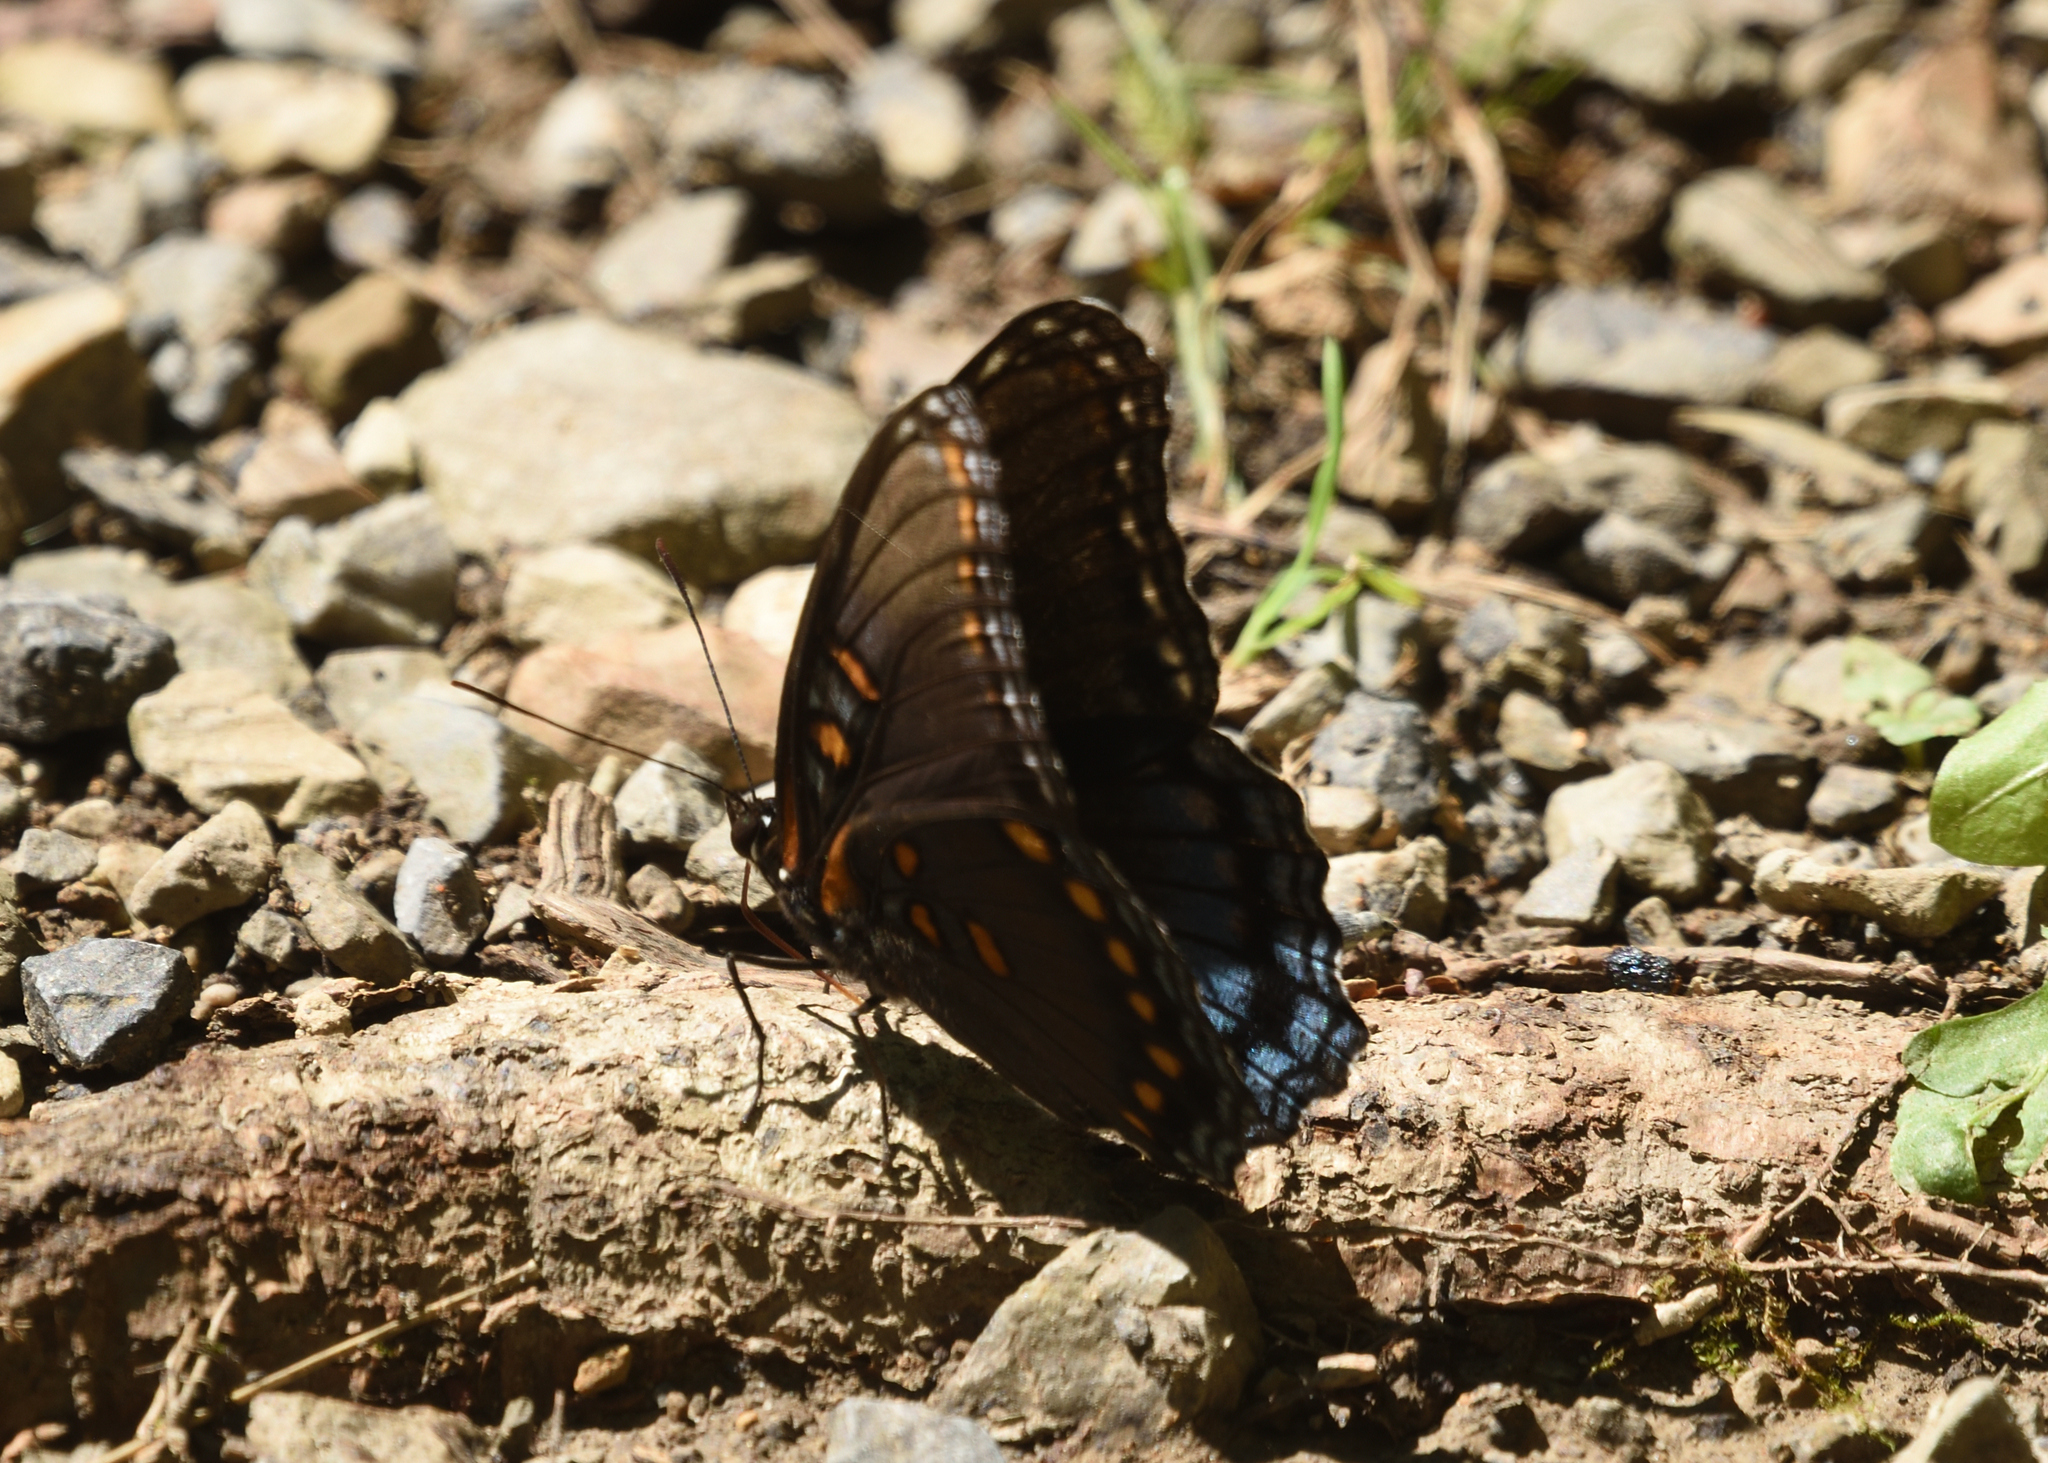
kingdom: Animalia
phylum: Arthropoda
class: Insecta
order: Lepidoptera
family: Nymphalidae
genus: Limenitis
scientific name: Limenitis arthemis
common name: Red-spotted admiral
